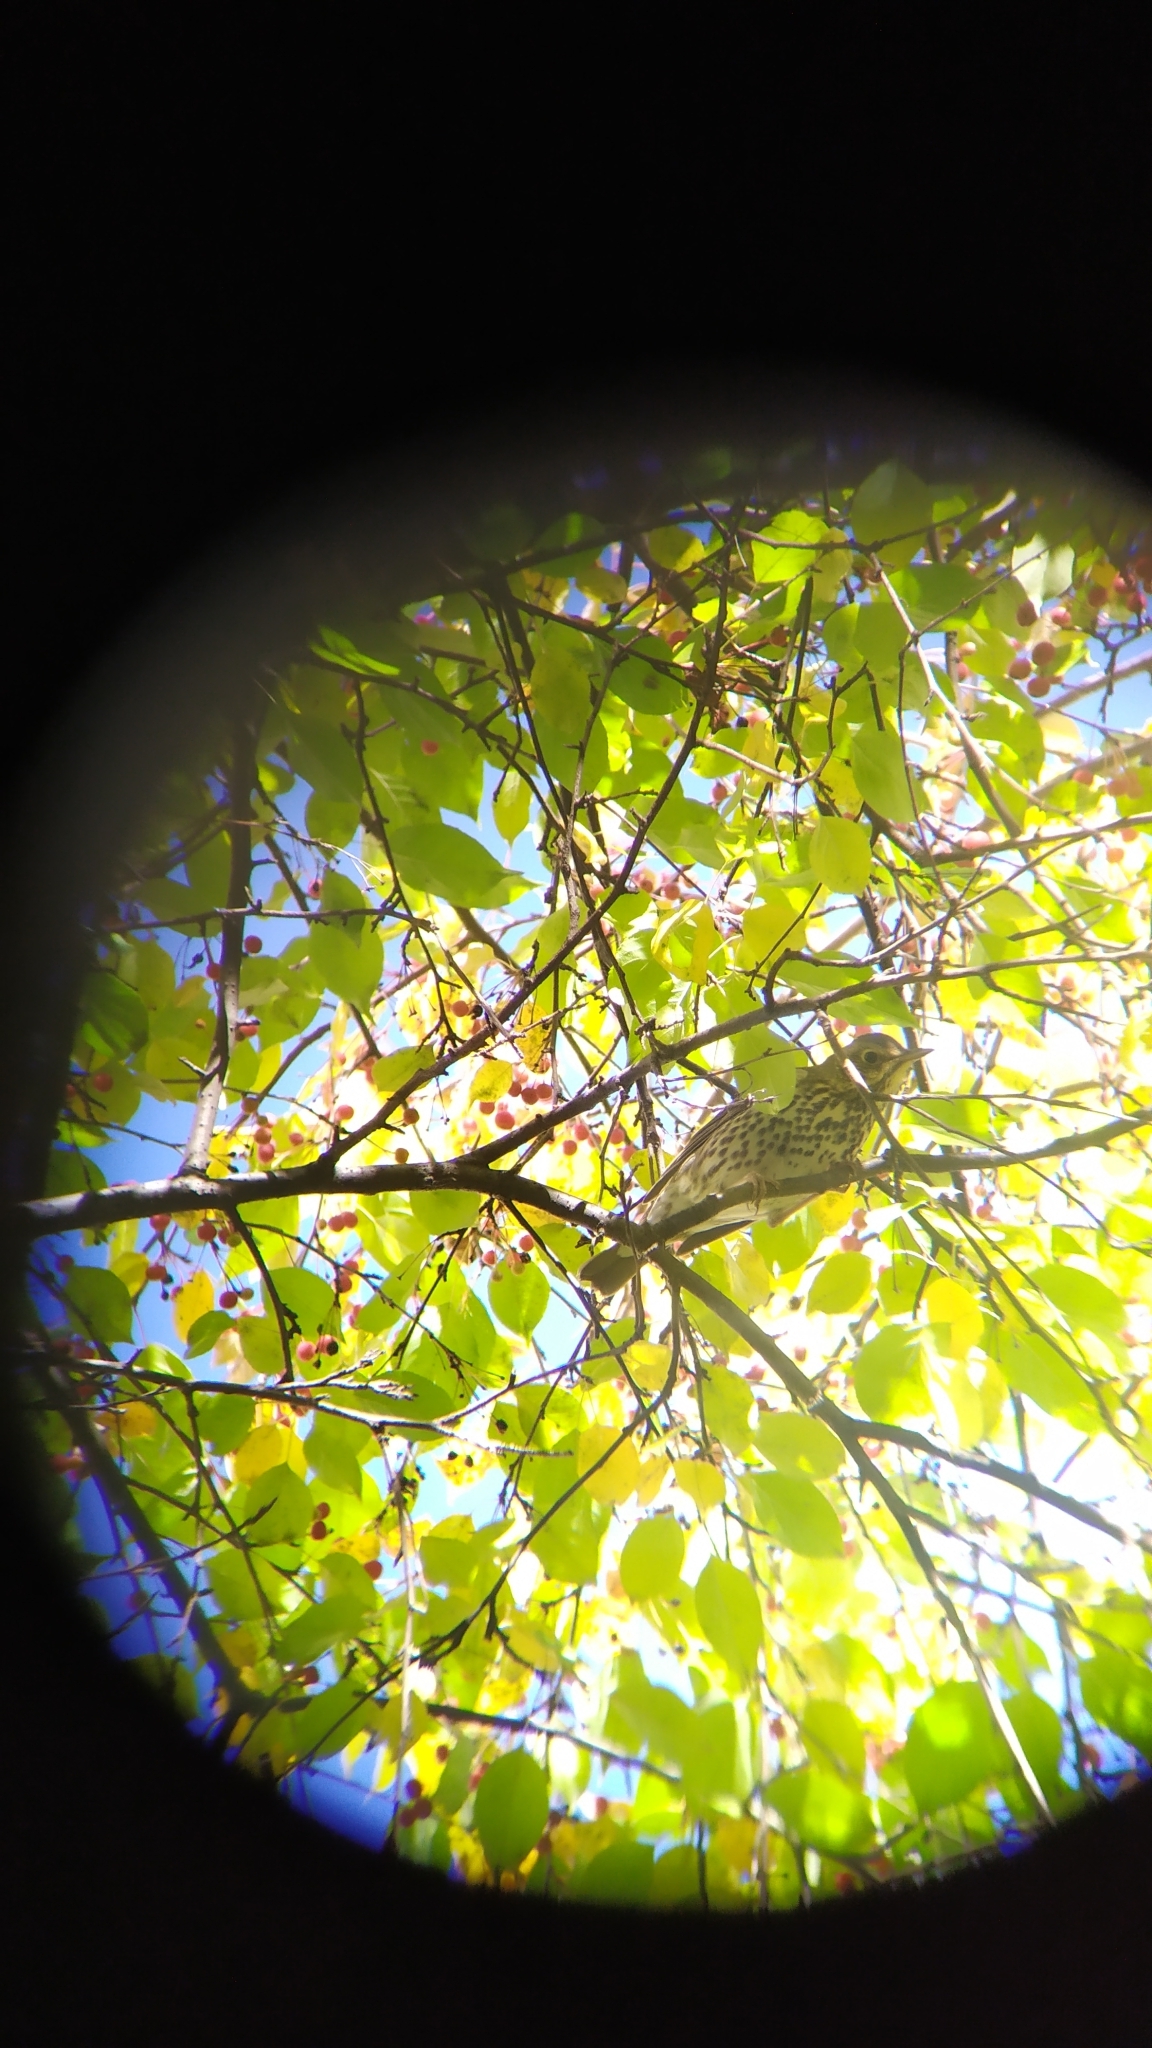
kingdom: Animalia
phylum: Chordata
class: Aves
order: Passeriformes
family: Turdidae
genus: Turdus
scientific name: Turdus philomelos
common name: Song thrush
